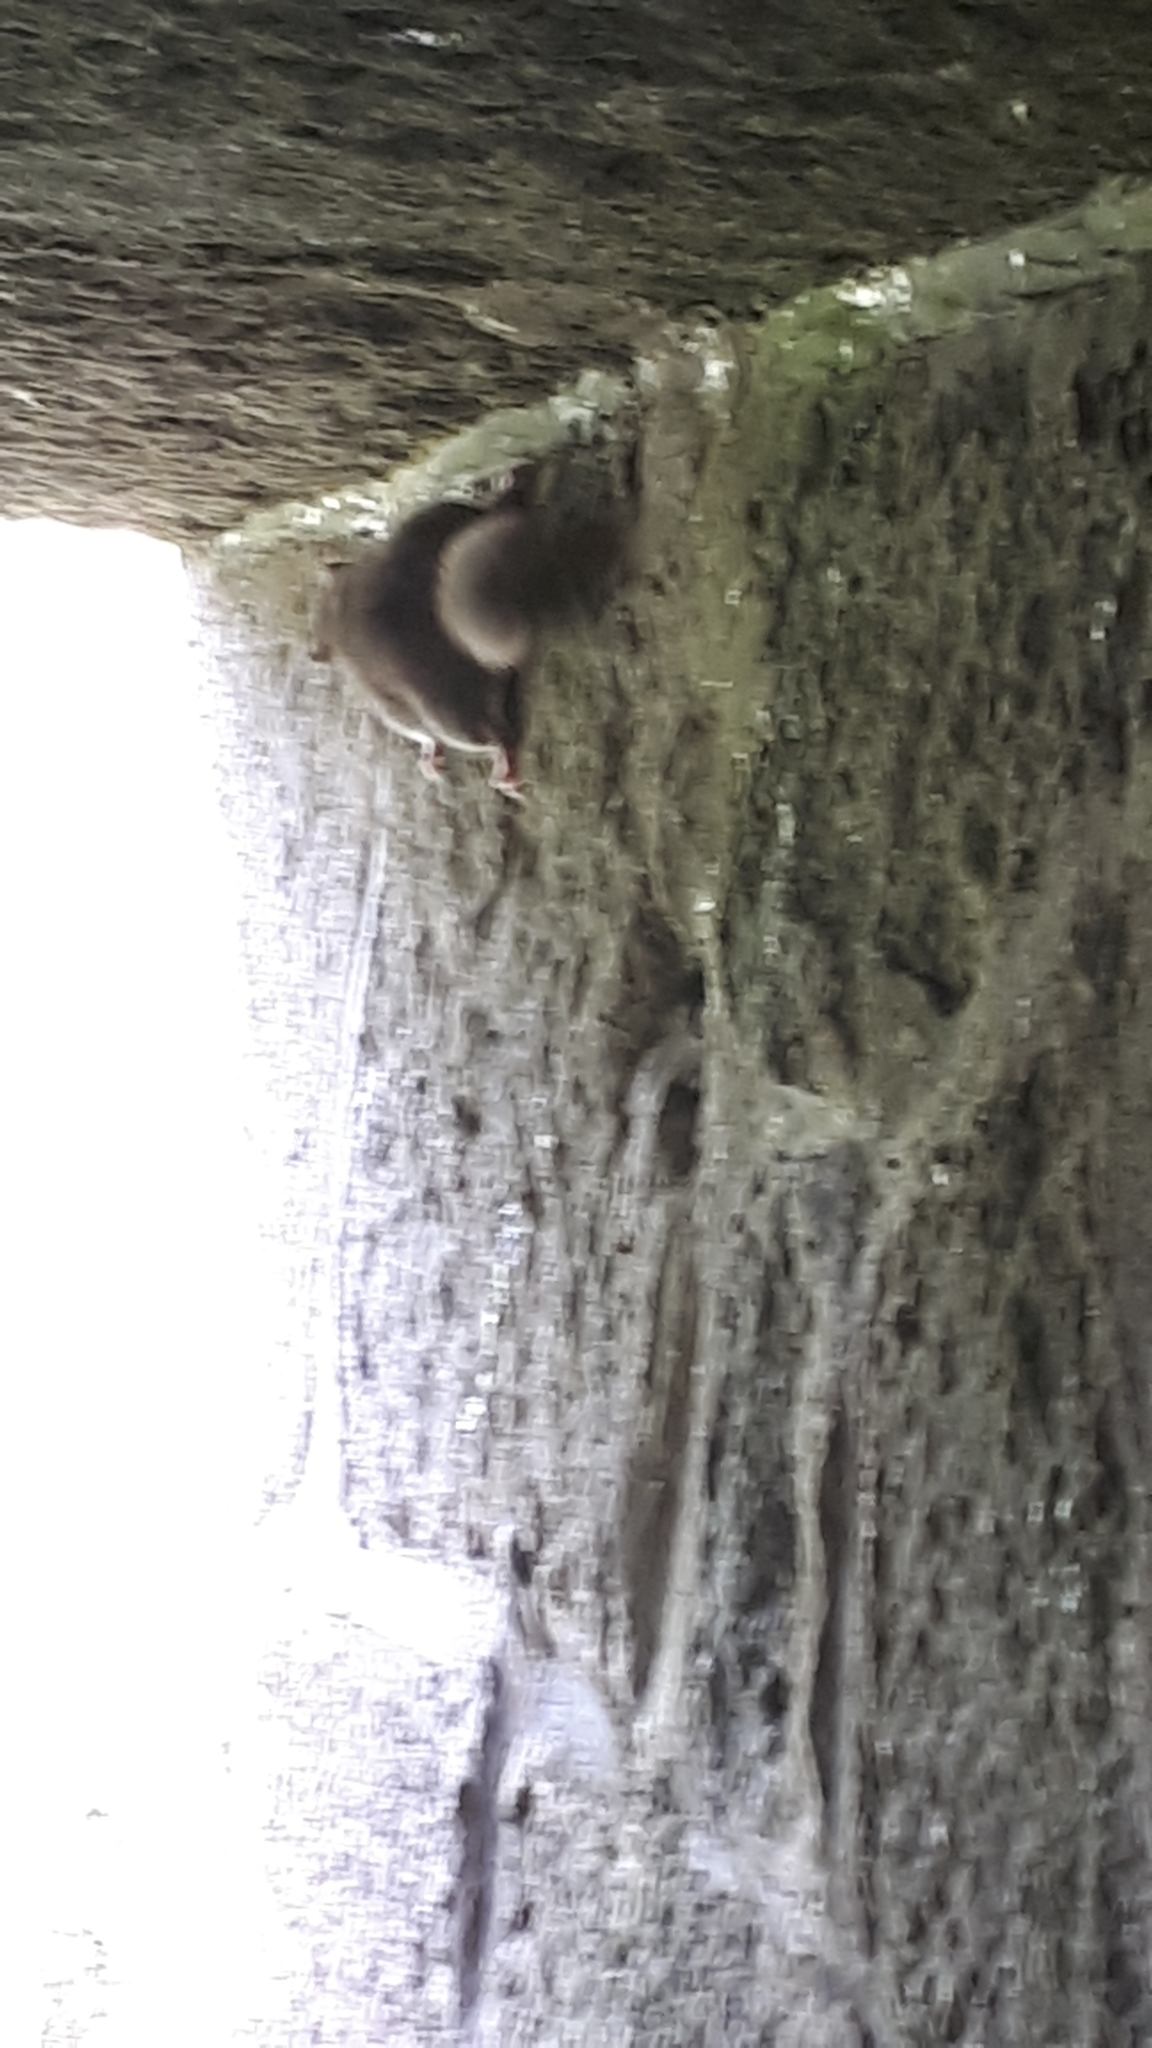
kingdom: Animalia
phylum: Chordata
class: Mammalia
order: Rodentia
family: Gliridae
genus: Glis
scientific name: Glis glis
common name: Fat dormouse
